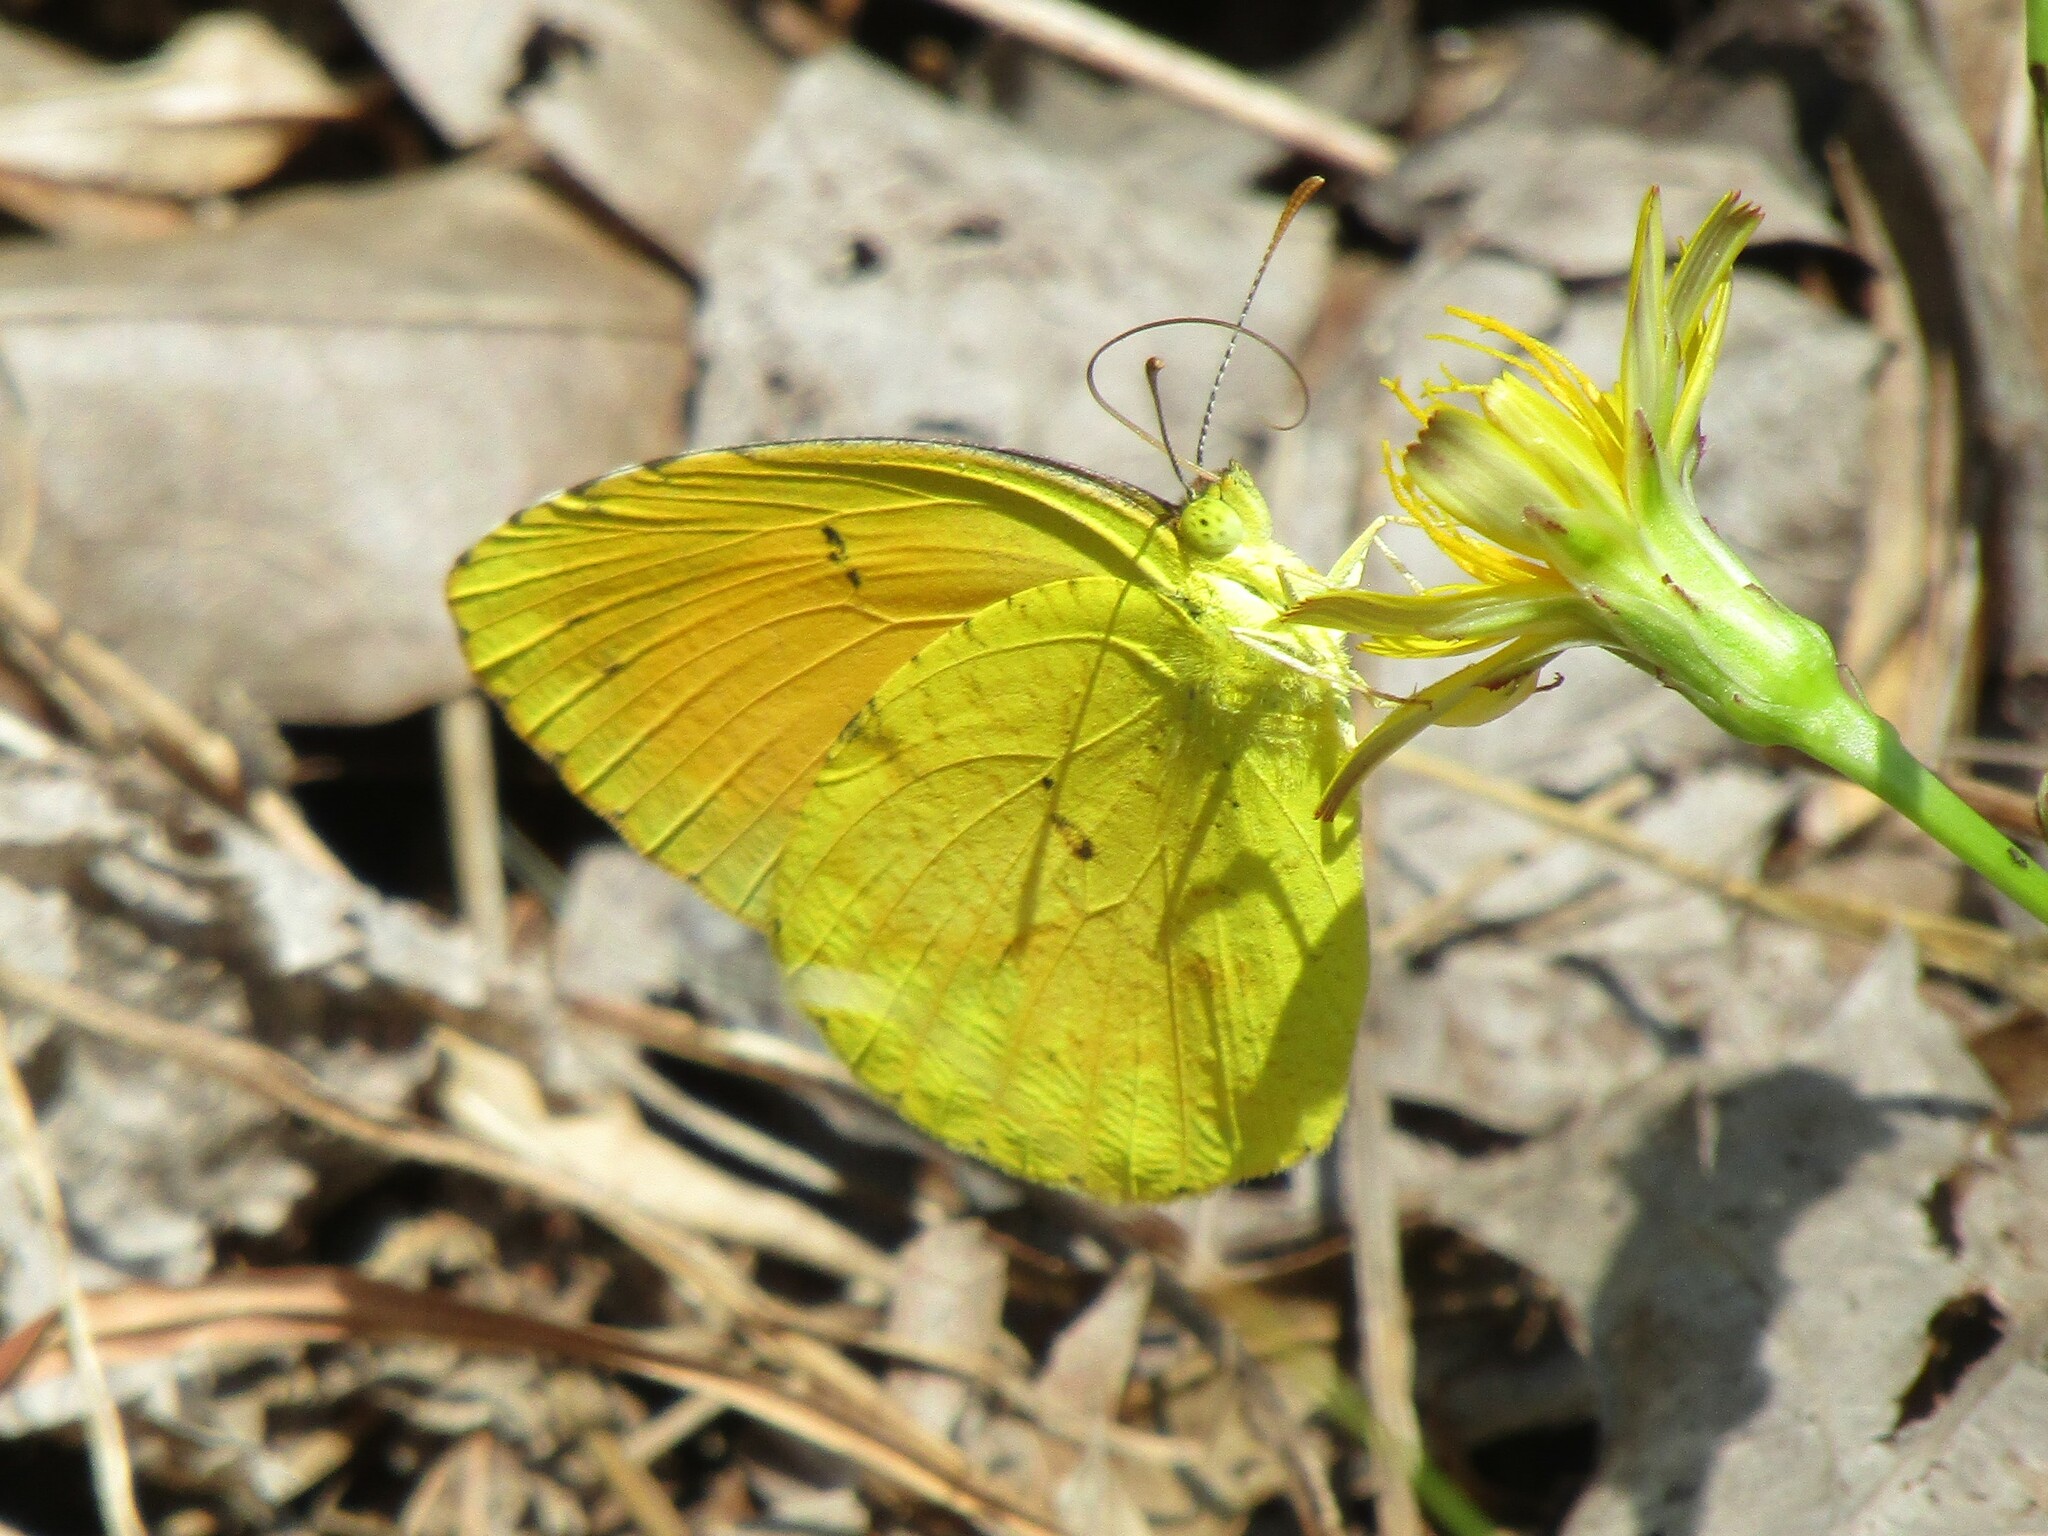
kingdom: Animalia
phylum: Arthropoda
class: Insecta
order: Lepidoptera
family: Pieridae
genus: Abaeis
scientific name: Abaeis nicippe
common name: Sleepy orange
